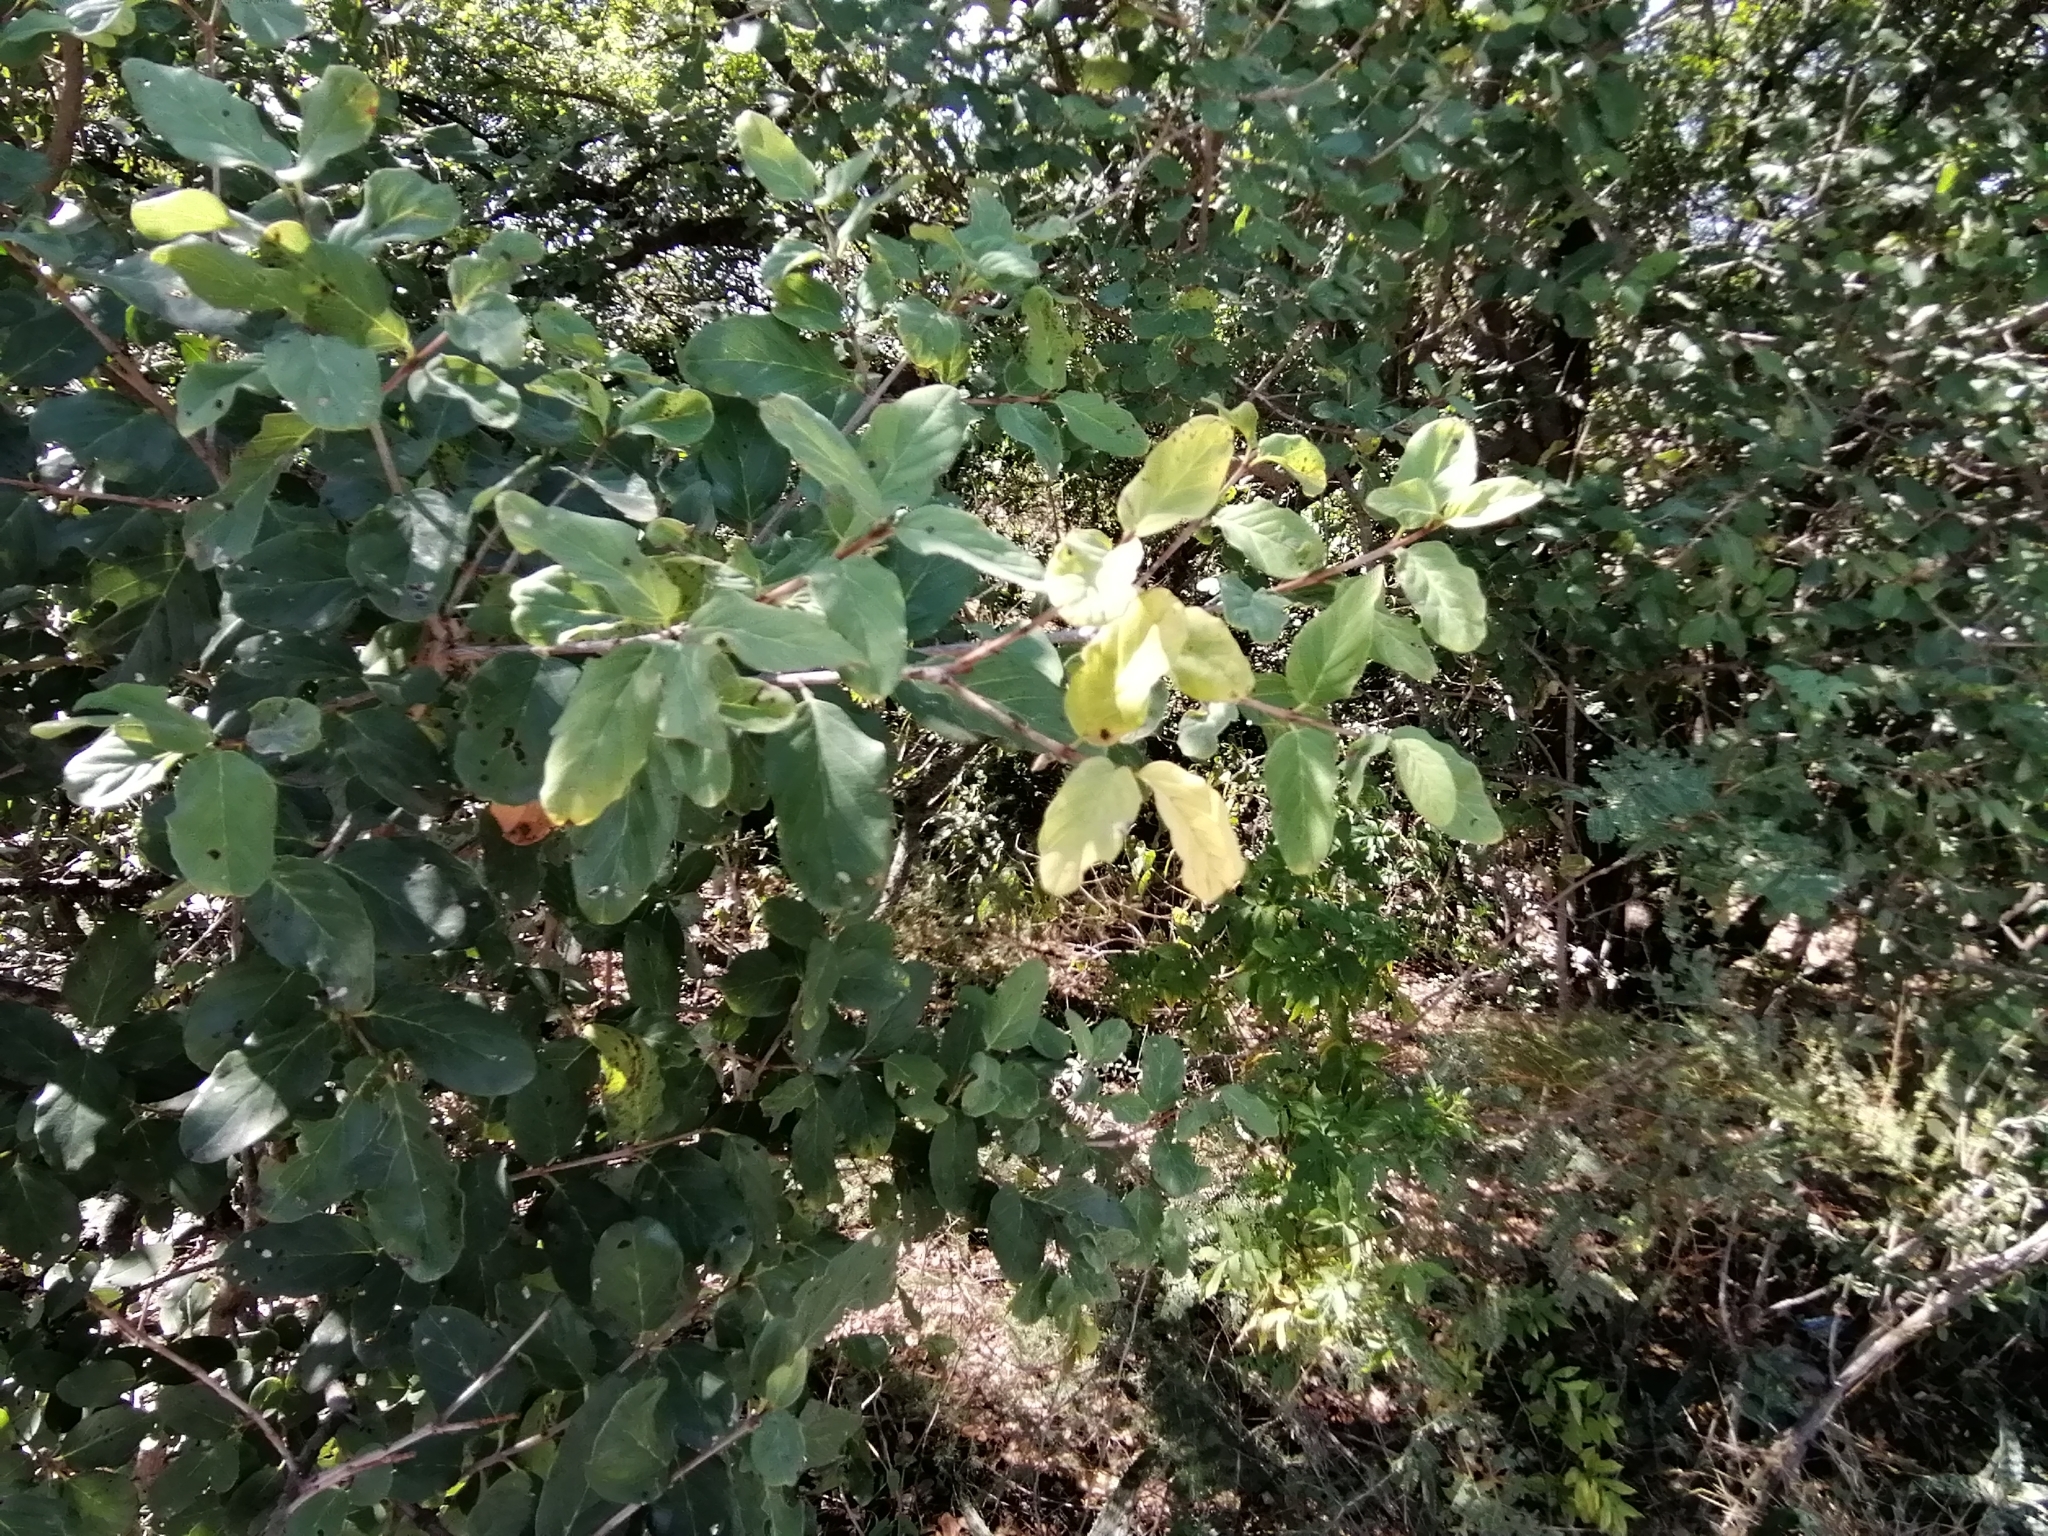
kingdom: Plantae
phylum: Tracheophyta
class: Magnoliopsida
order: Rosales
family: Rhamnaceae
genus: Phyllogeiton
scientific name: Phyllogeiton zeyheri
